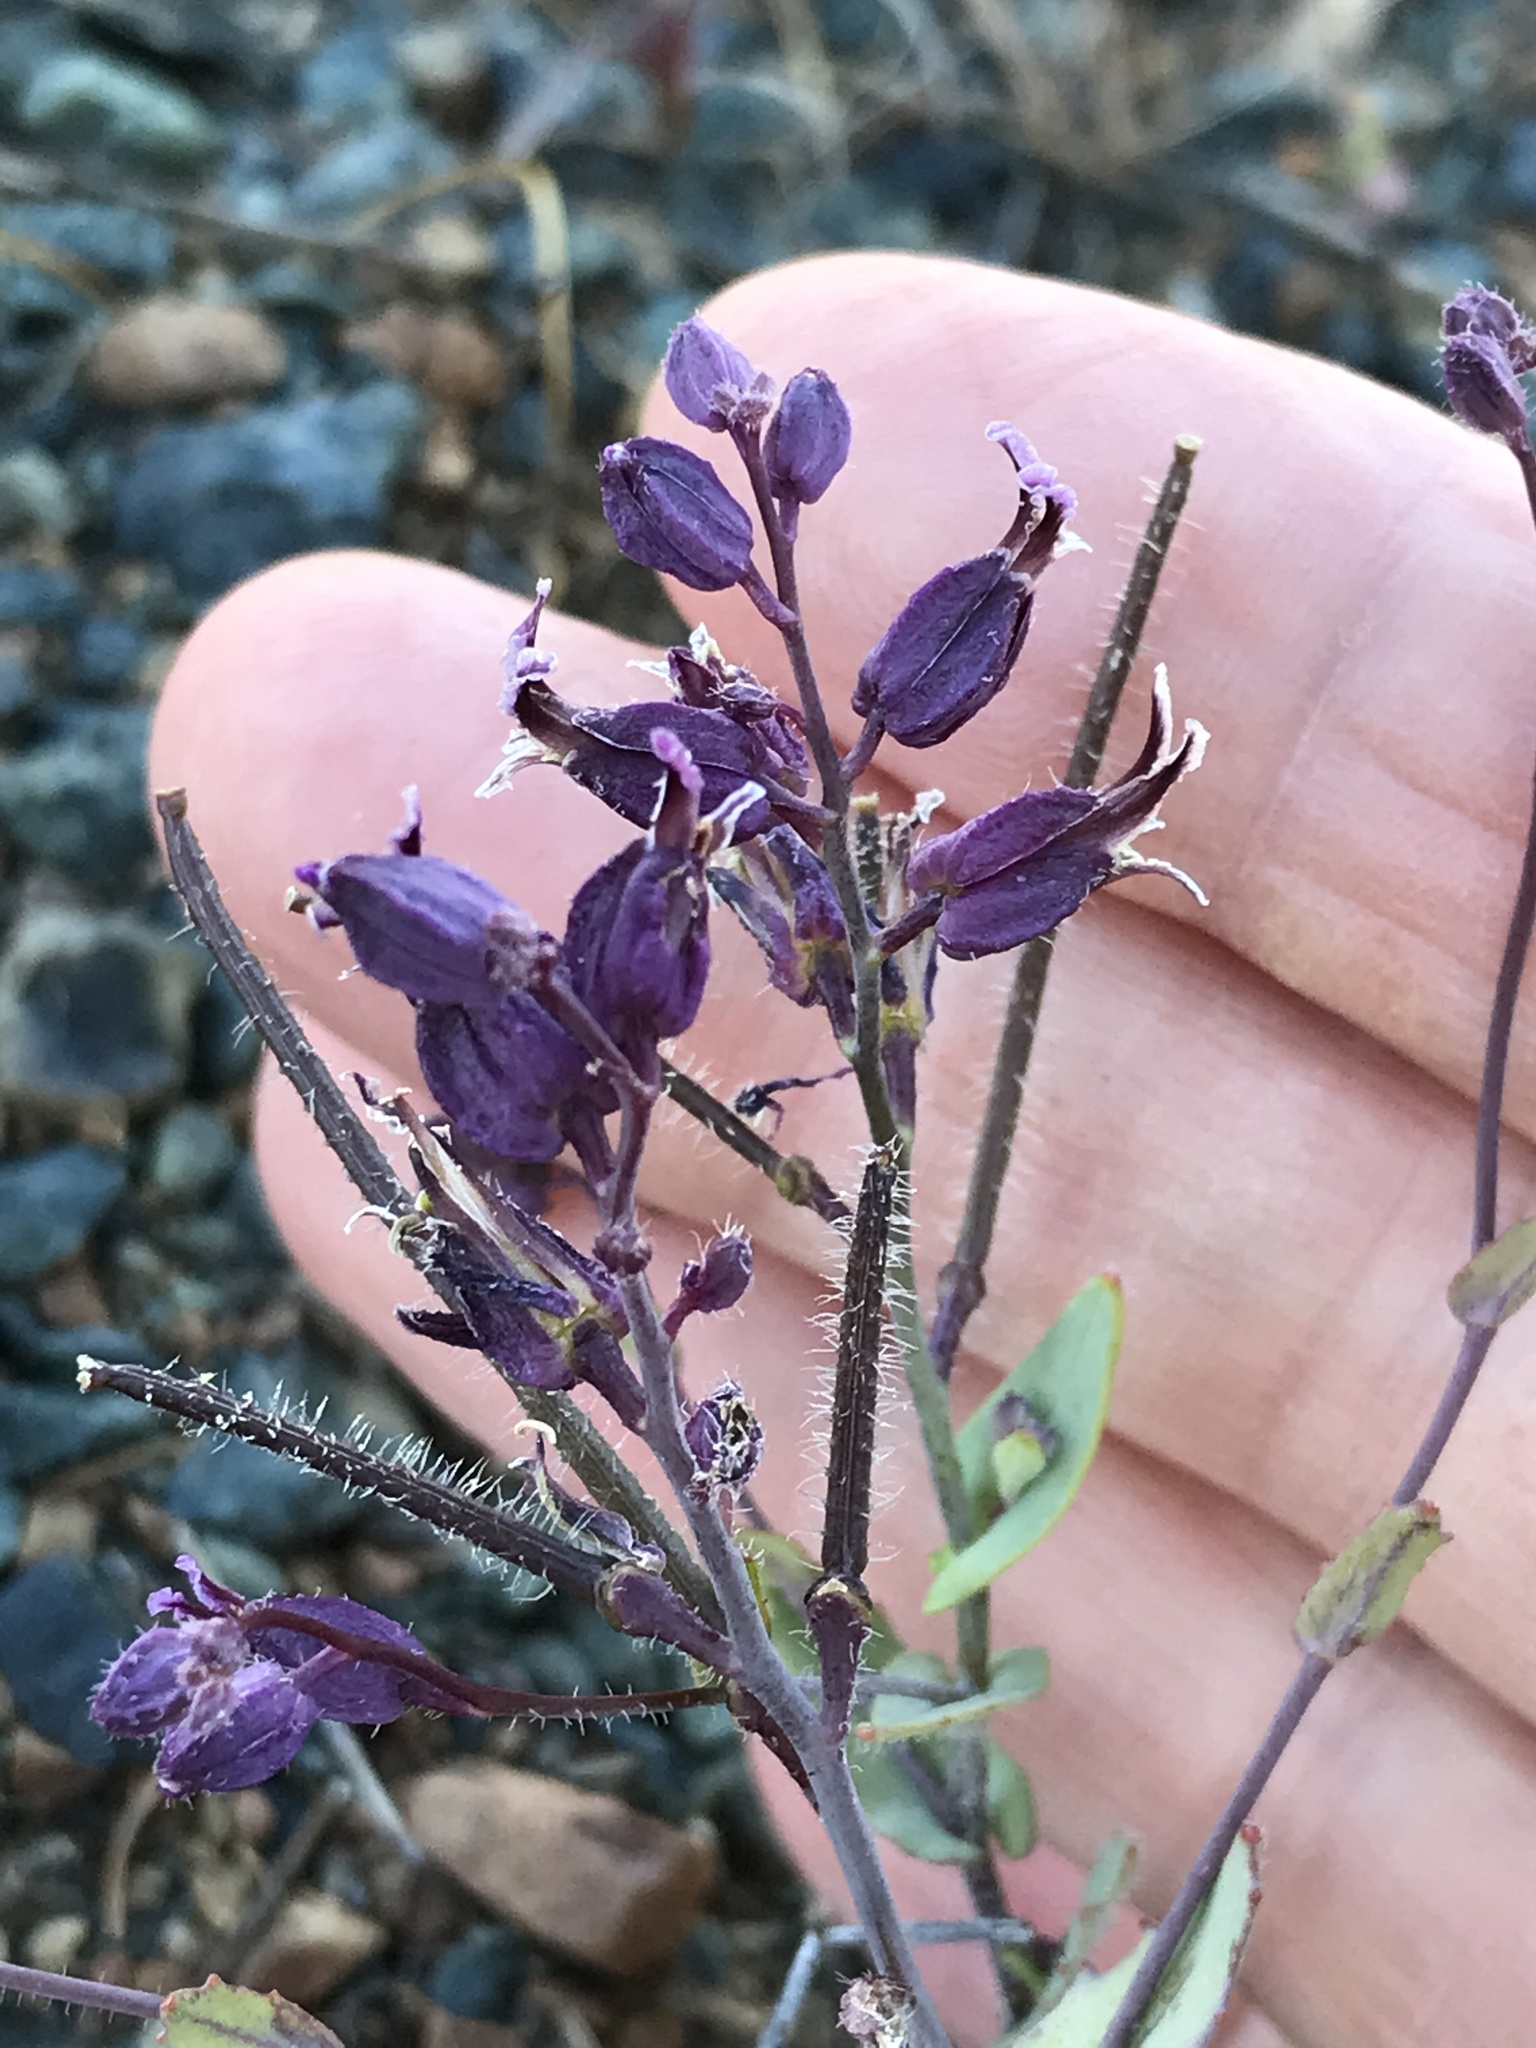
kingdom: Plantae
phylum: Tracheophyta
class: Magnoliopsida
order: Brassicales
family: Brassicaceae
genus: Streptanthus
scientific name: Streptanthus glandulosus
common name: Jewel-flower
